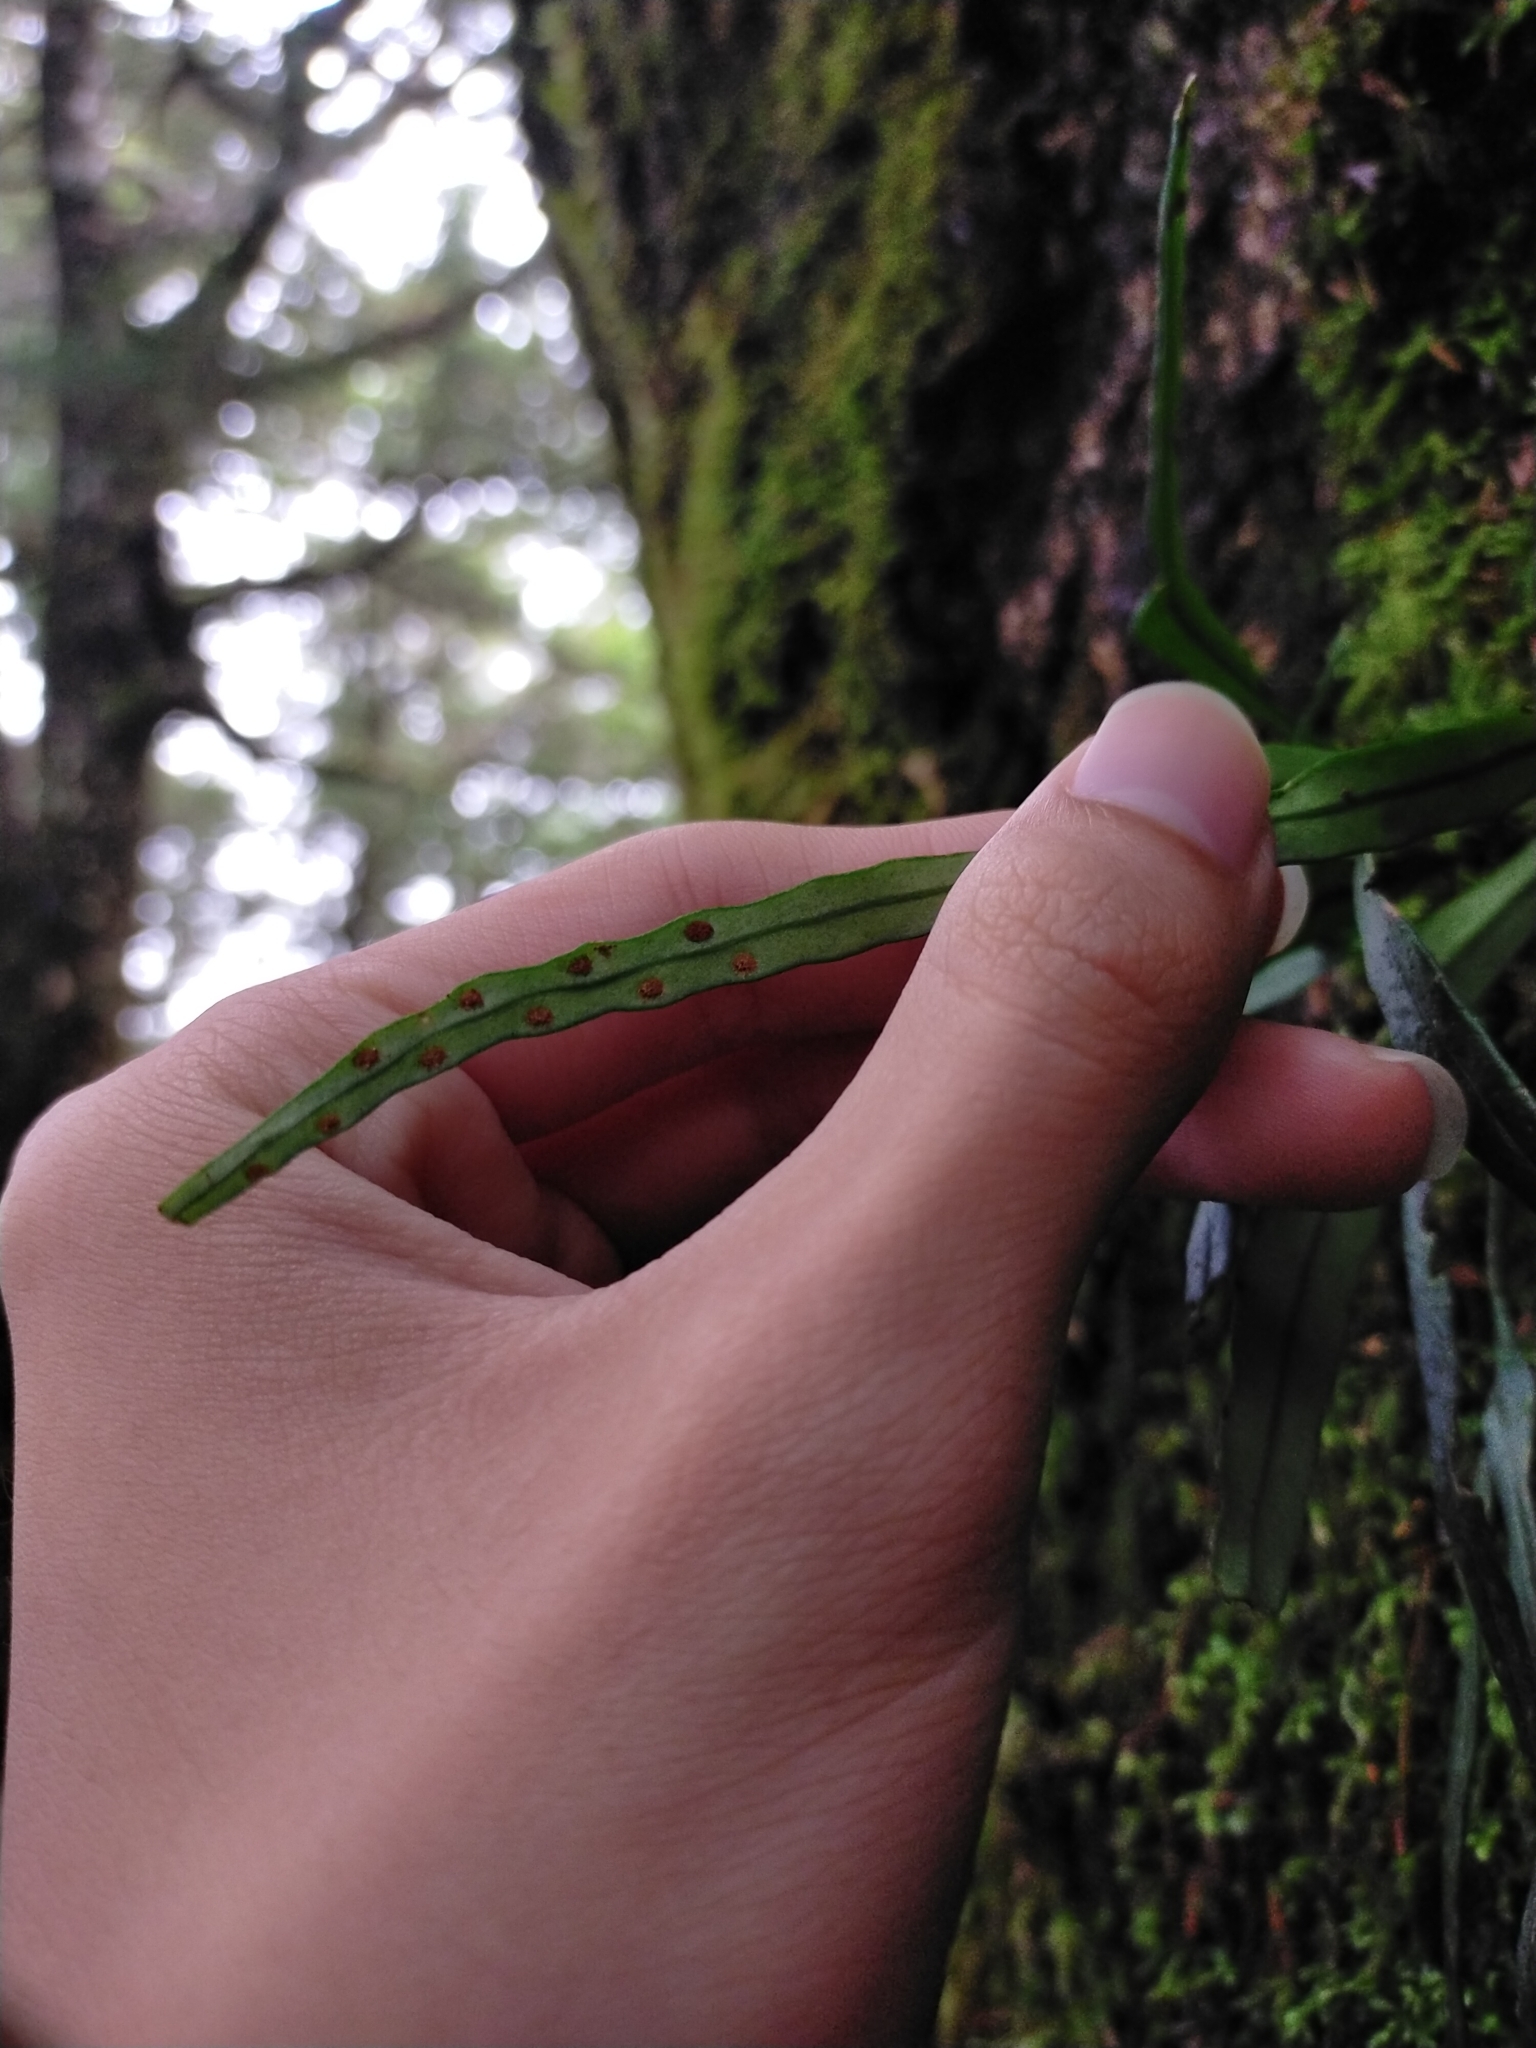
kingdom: Plantae
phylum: Tracheophyta
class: Polypodiopsida
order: Polypodiales
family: Polypodiaceae
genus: Lepisorus
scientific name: Lepisorus monilisorus
